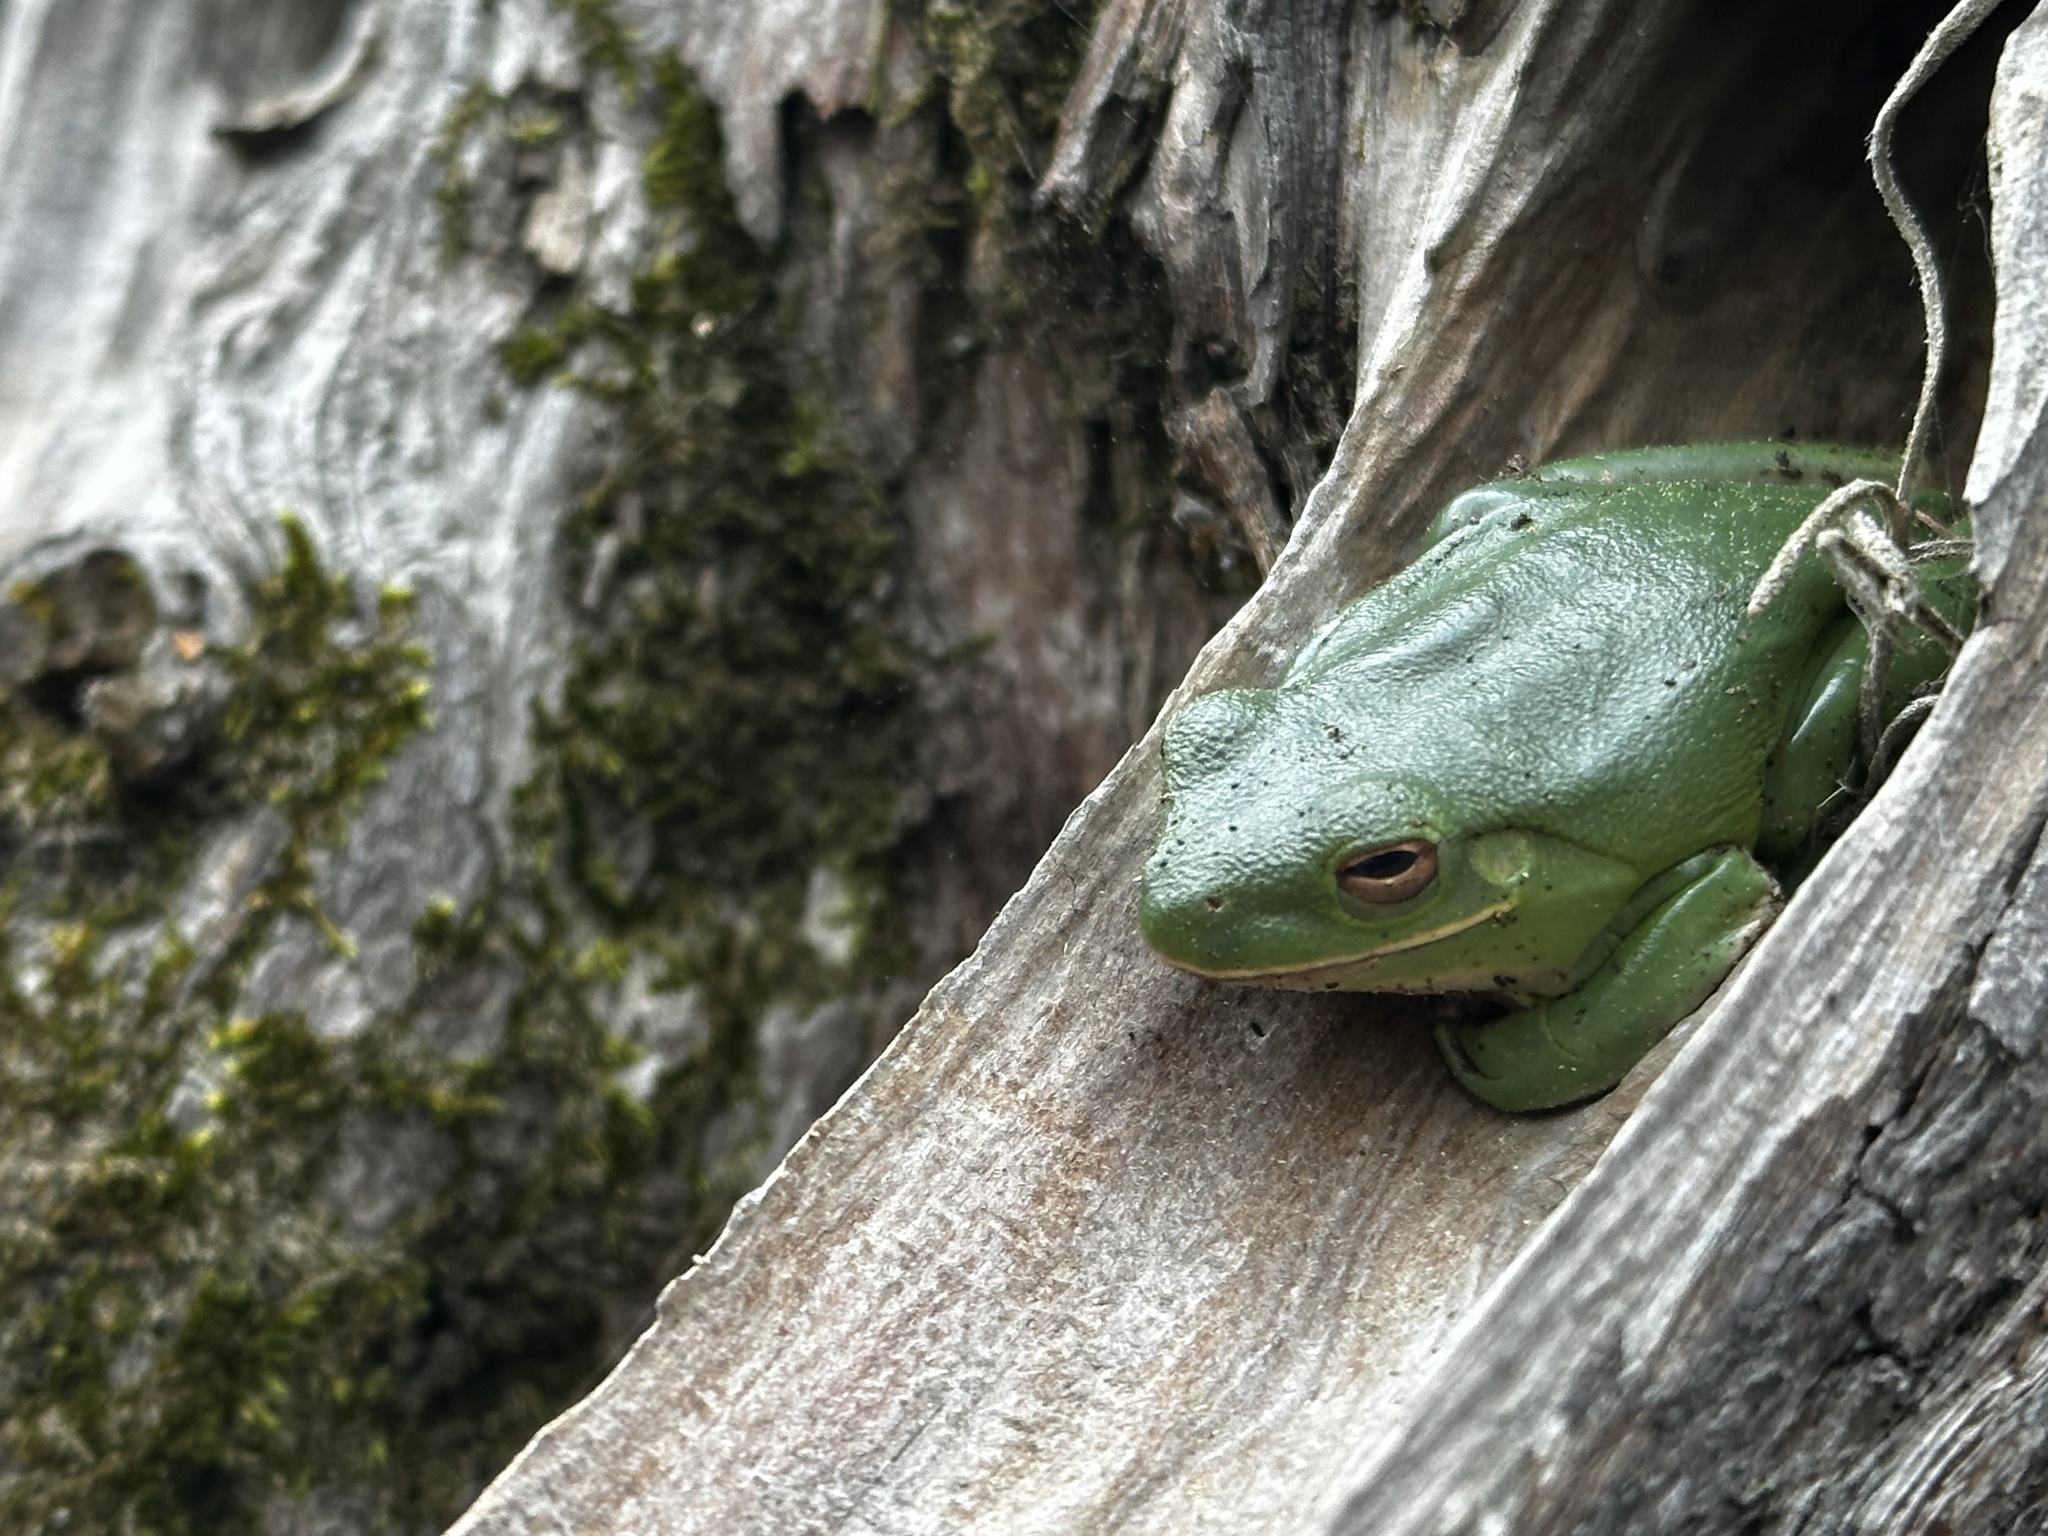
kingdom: Animalia
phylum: Chordata
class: Amphibia
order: Anura
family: Hylidae
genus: Dryophytes
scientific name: Dryophytes cinereus
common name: Green treefrog
